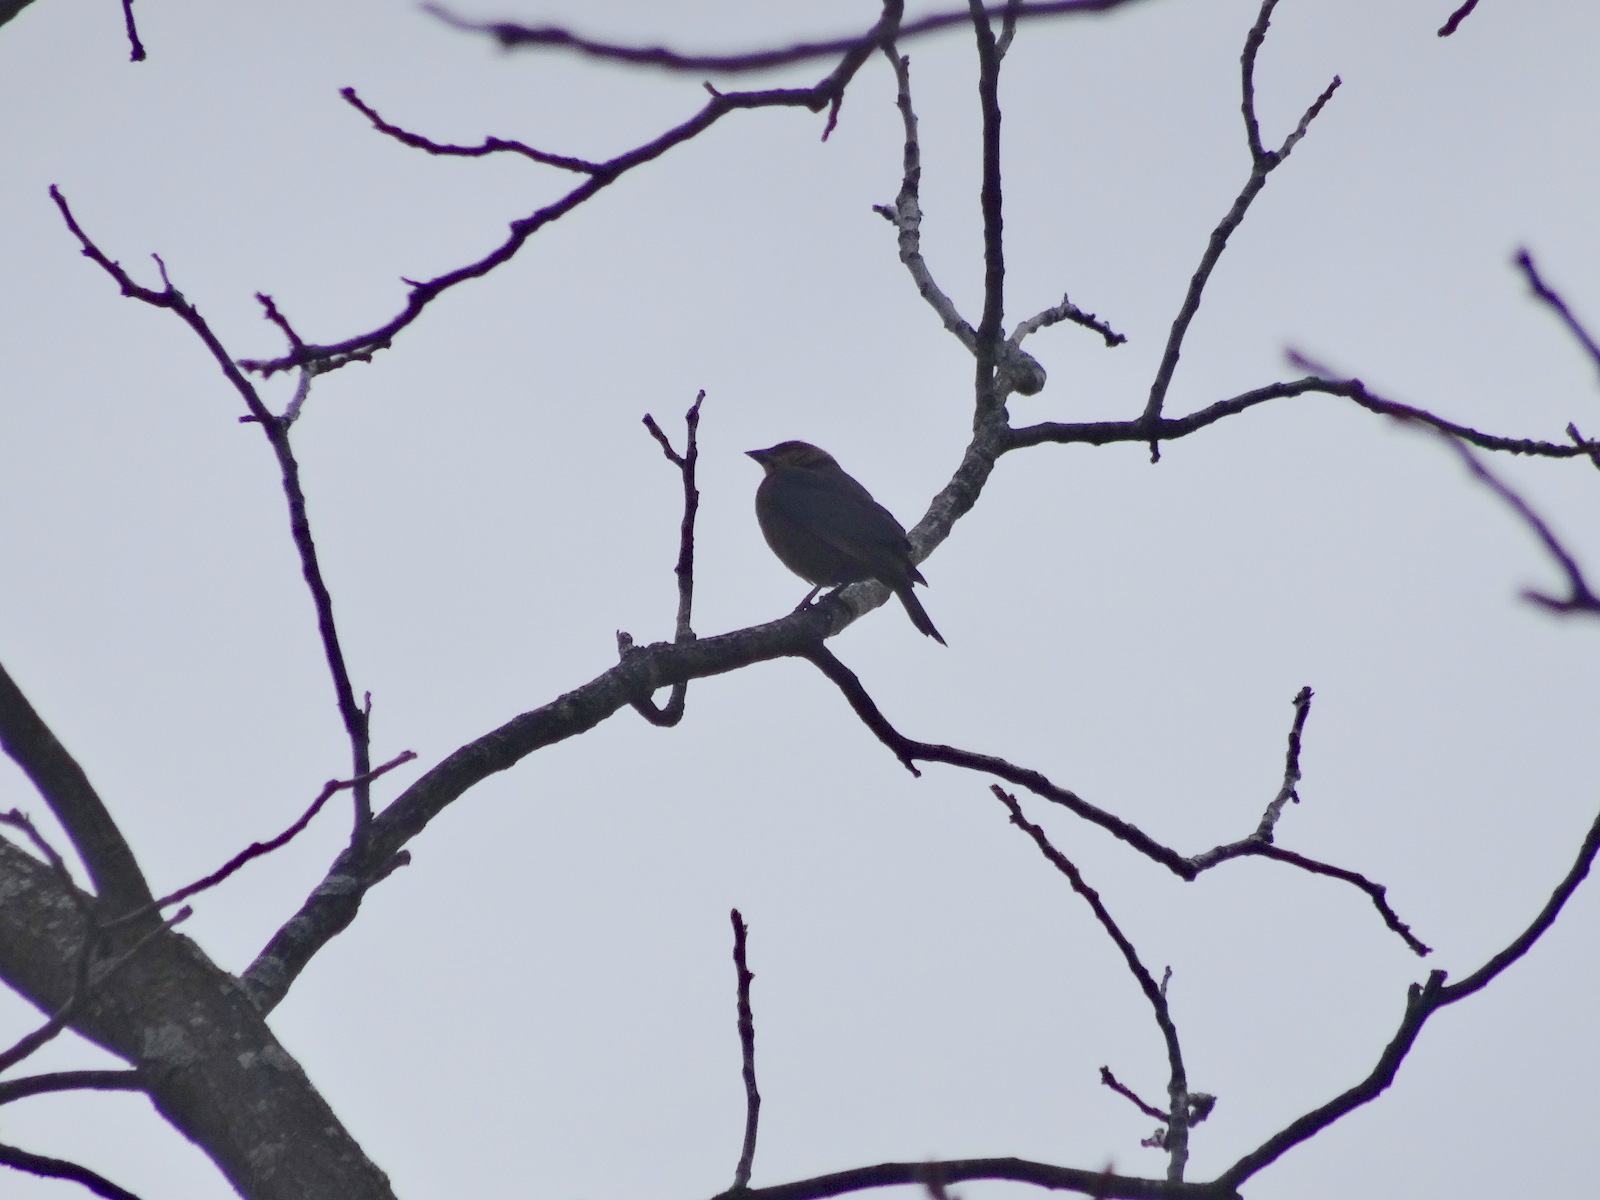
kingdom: Animalia
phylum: Chordata
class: Aves
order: Passeriformes
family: Icteridae
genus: Molothrus
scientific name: Molothrus ater
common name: Brown-headed cowbird
